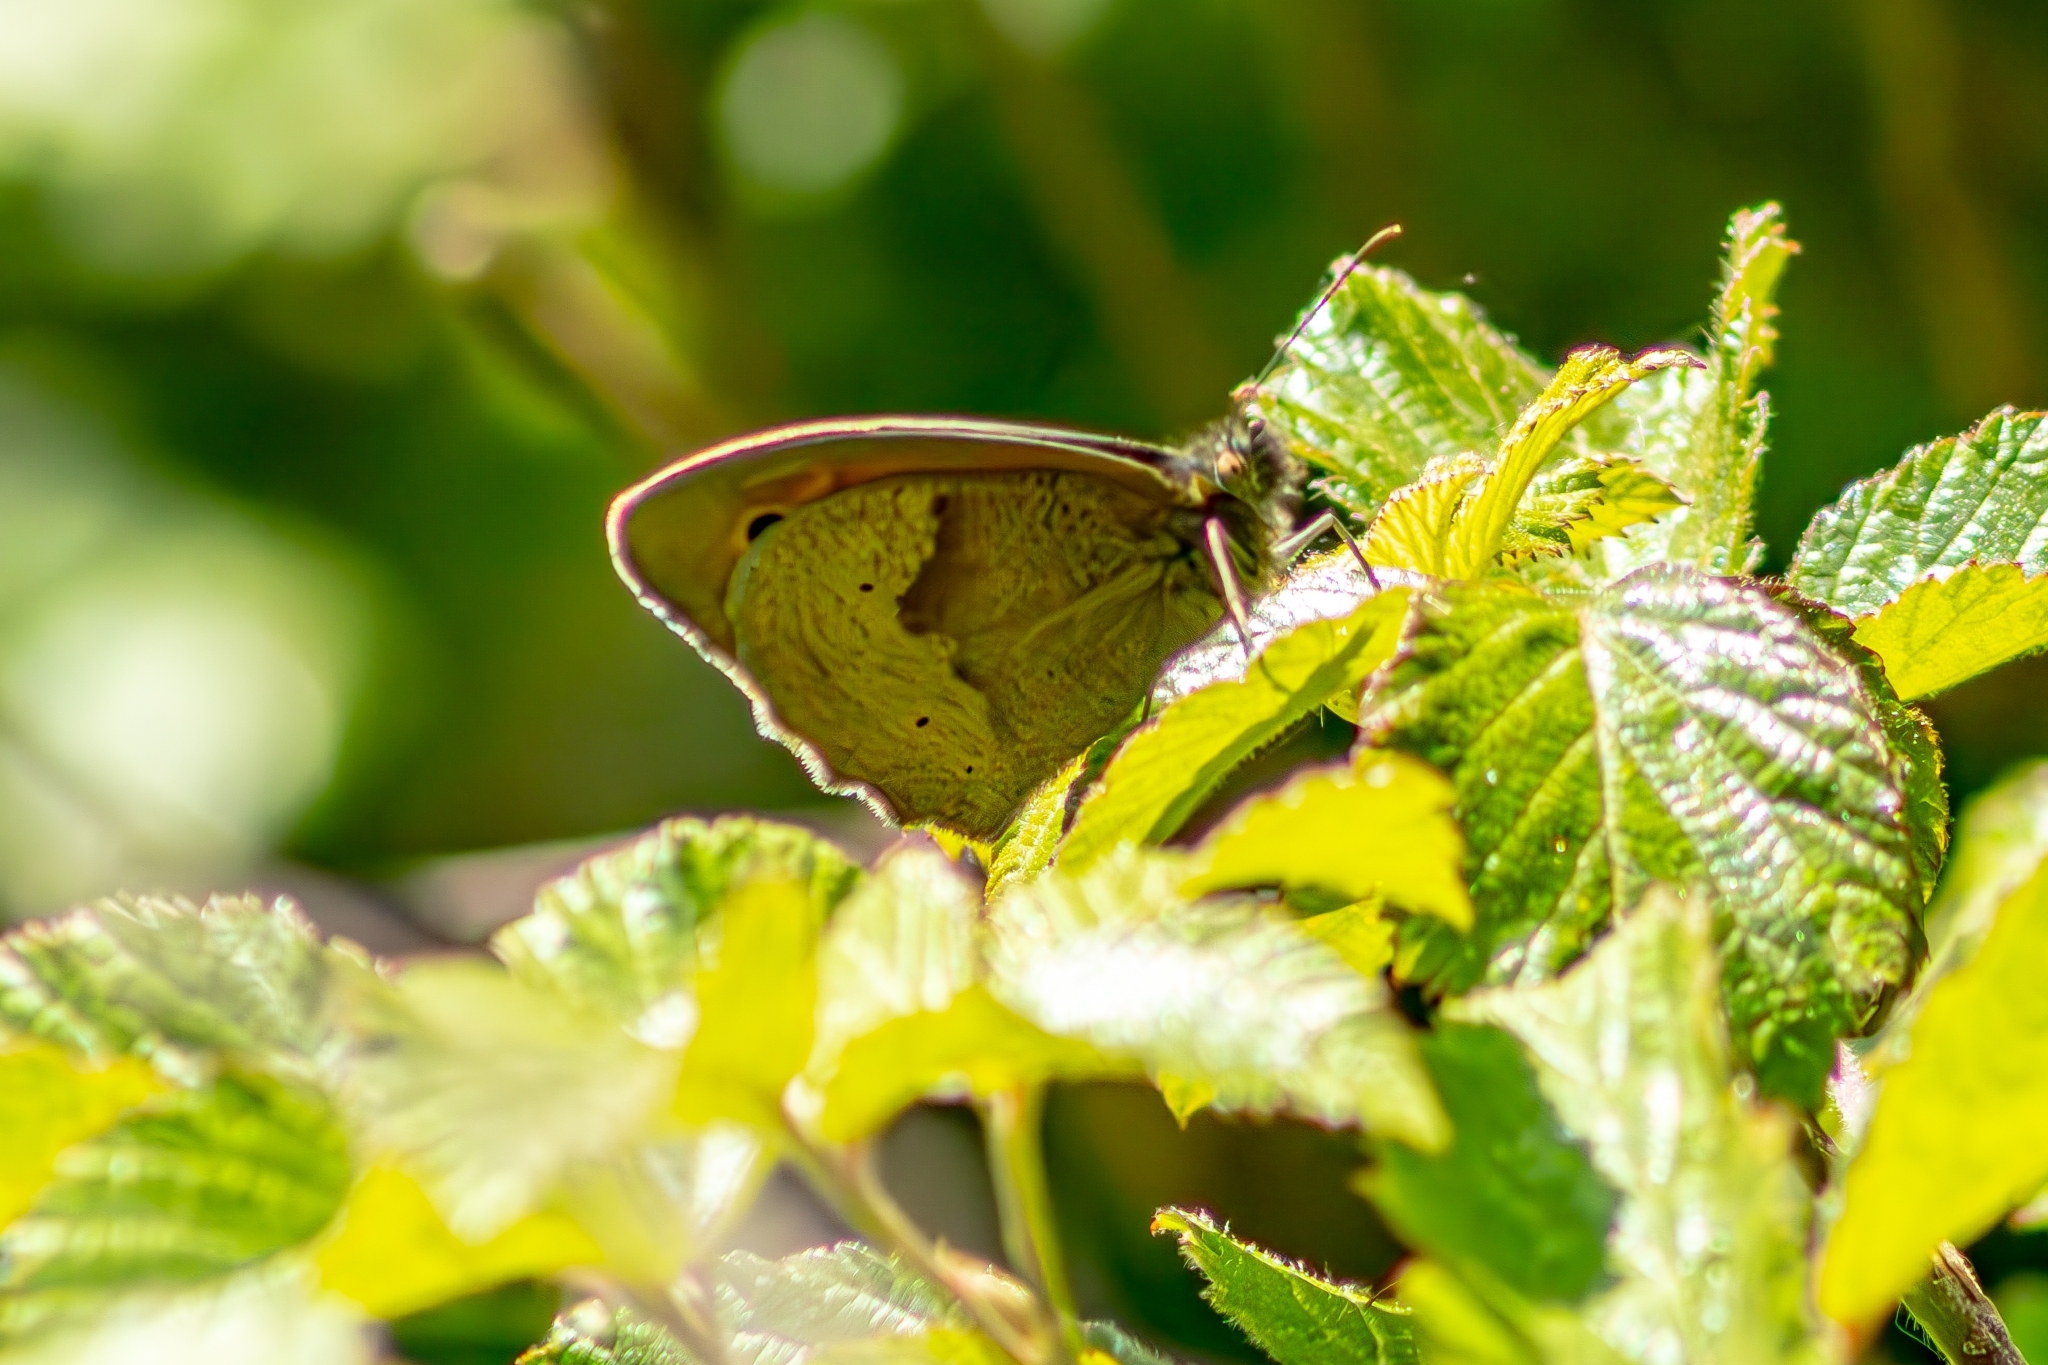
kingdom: Animalia
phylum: Arthropoda
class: Insecta
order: Lepidoptera
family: Nymphalidae
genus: Maniola
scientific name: Maniola jurtina
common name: Meadow brown
